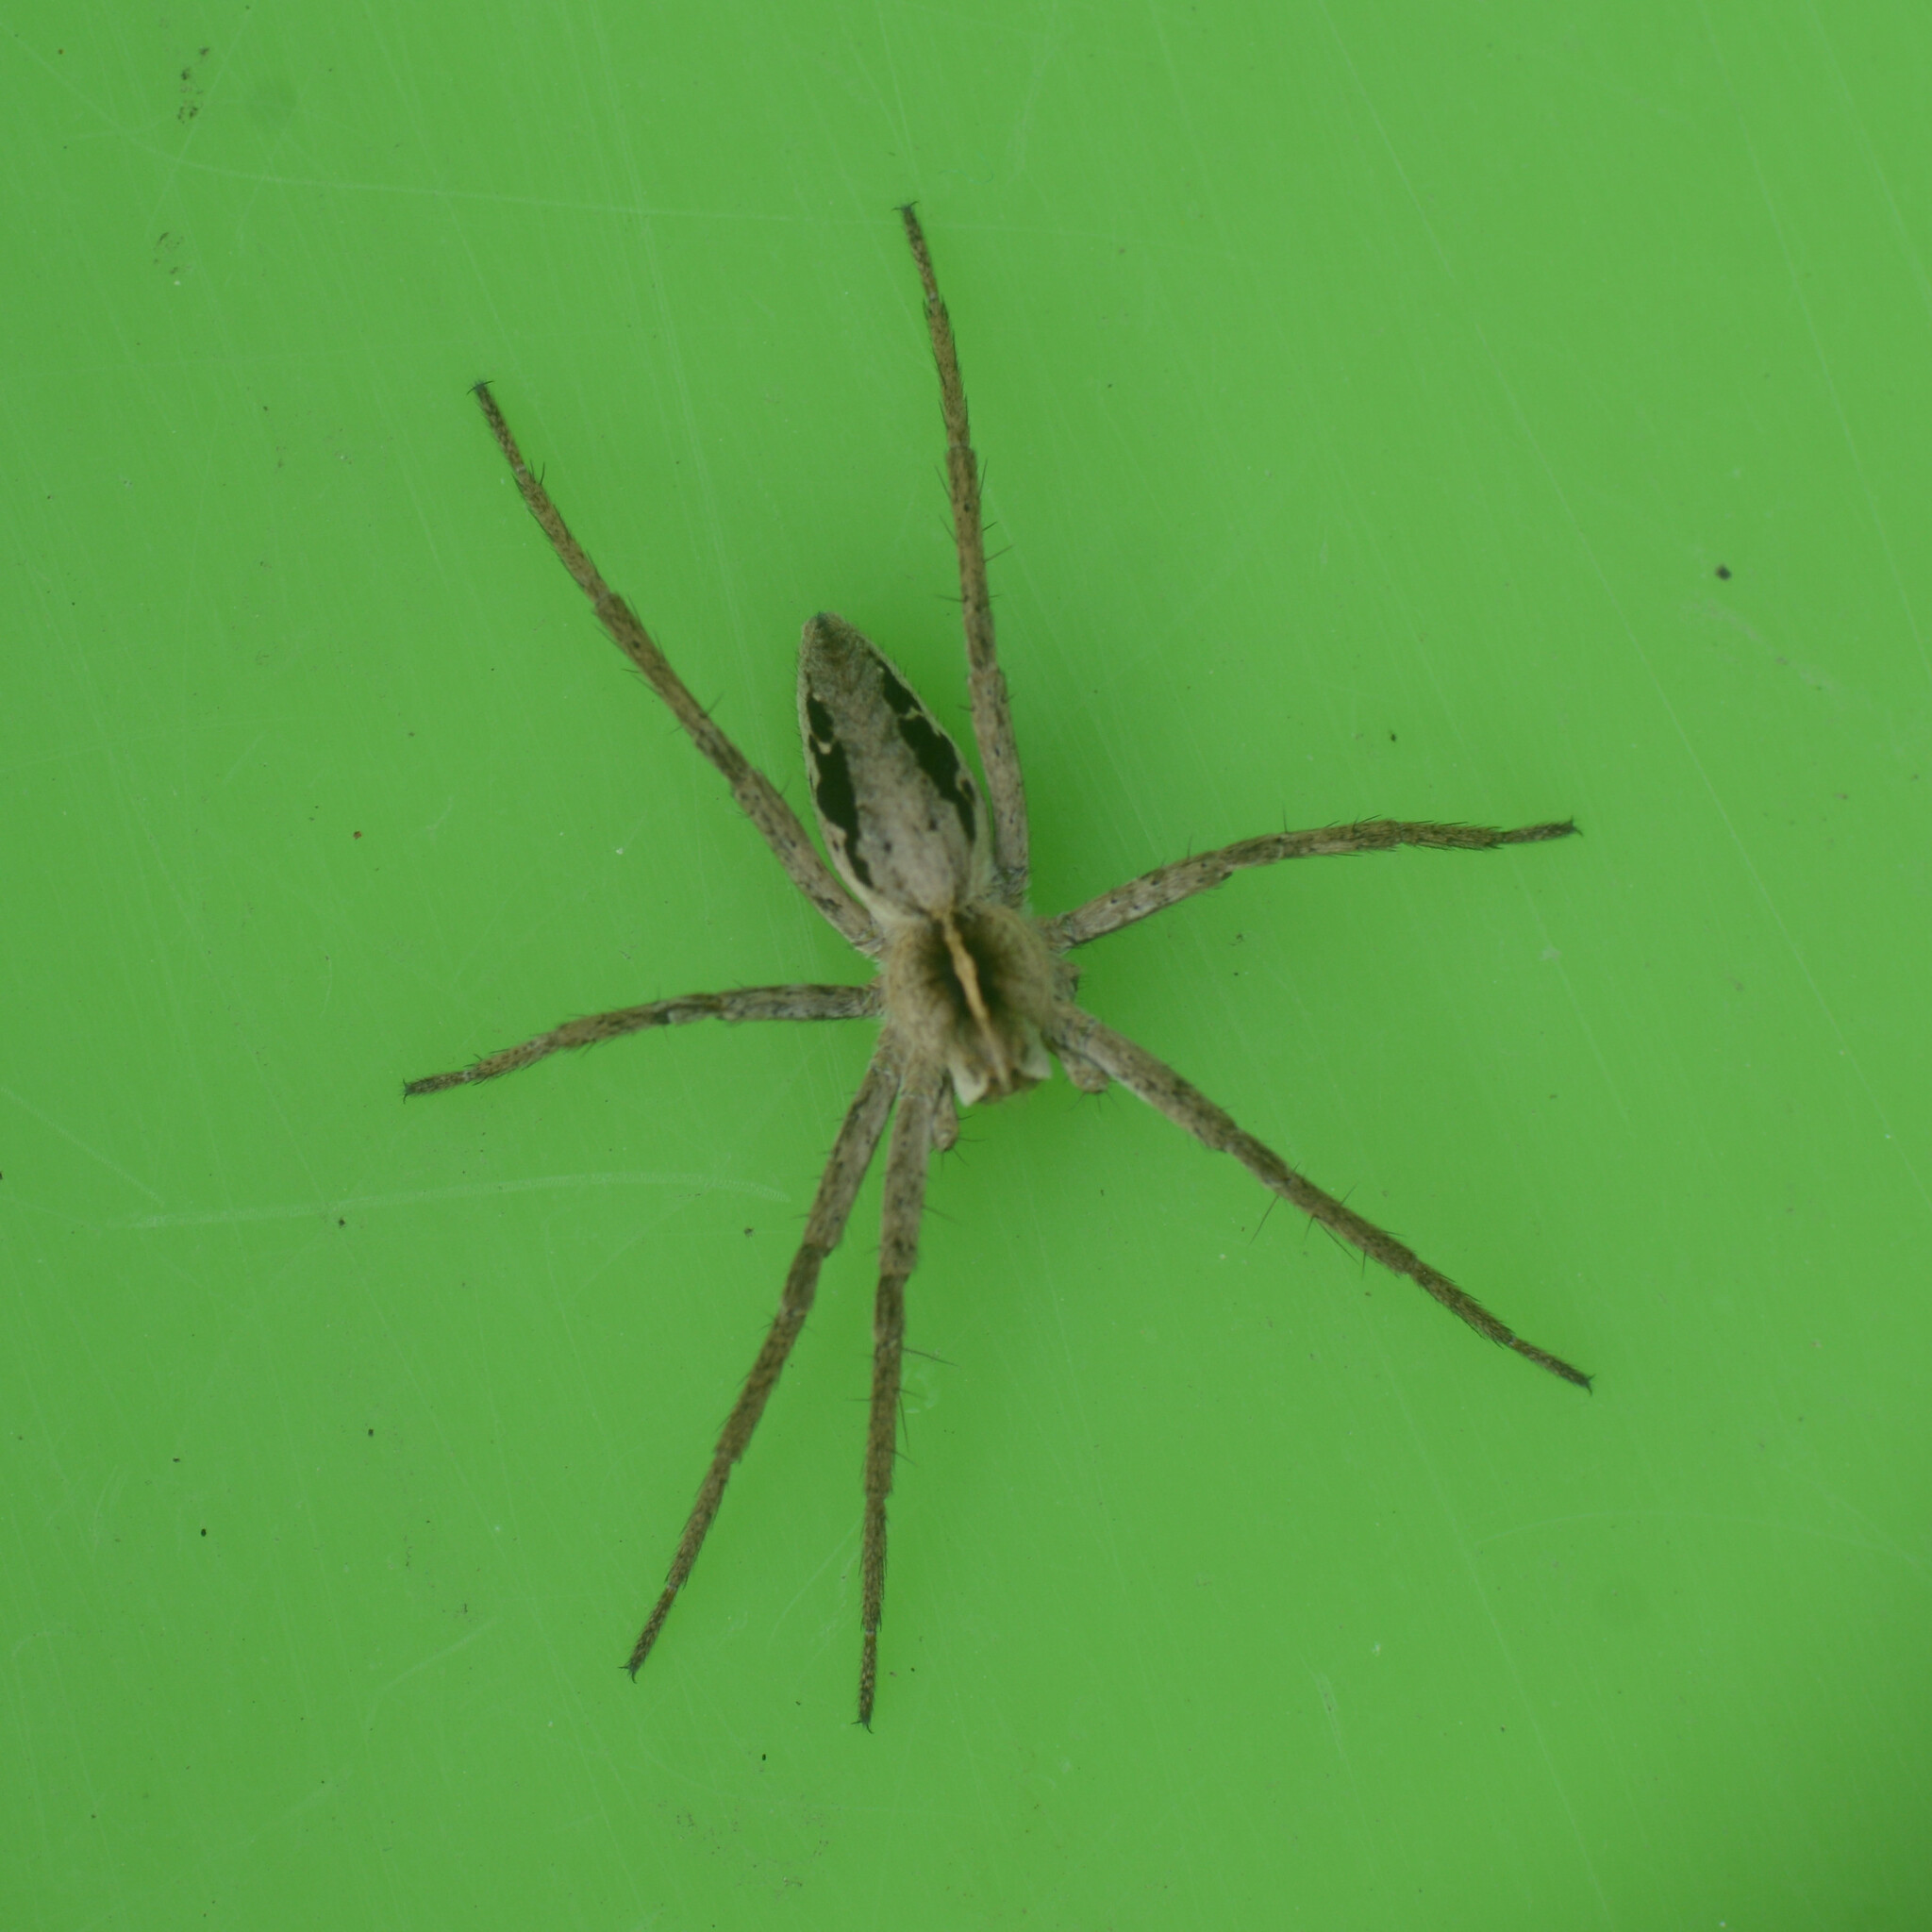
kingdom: Animalia
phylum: Arthropoda
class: Arachnida
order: Araneae
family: Pisauridae
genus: Pisaura
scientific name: Pisaura mirabilis
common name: Tent spider
